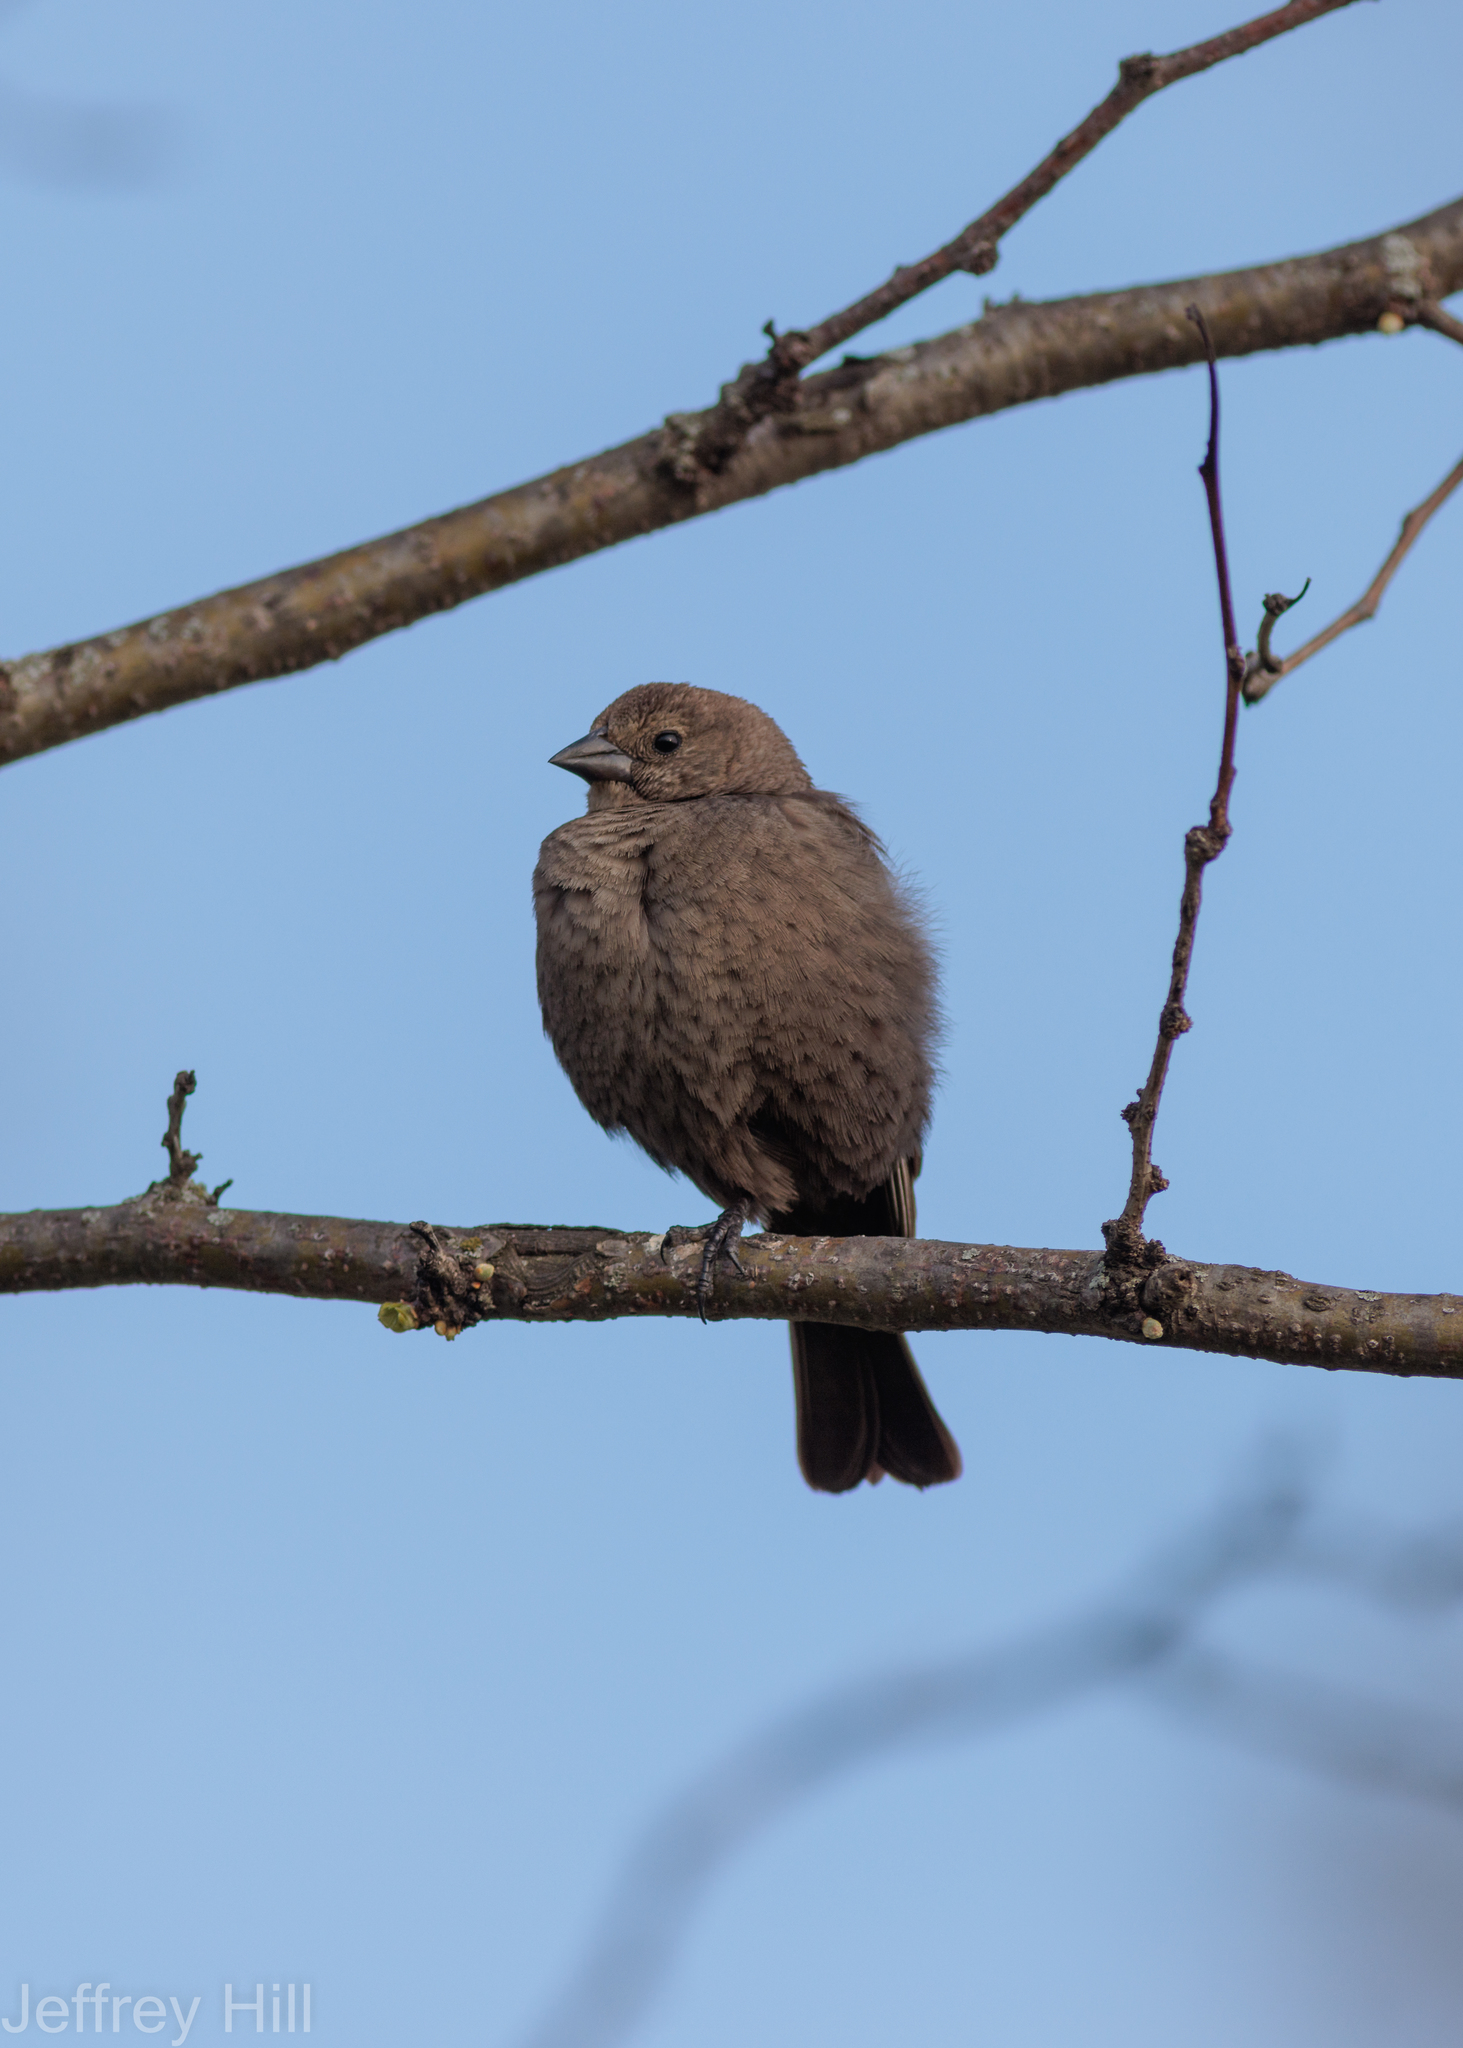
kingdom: Animalia
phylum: Chordata
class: Aves
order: Passeriformes
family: Icteridae
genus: Molothrus
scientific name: Molothrus ater
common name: Brown-headed cowbird
